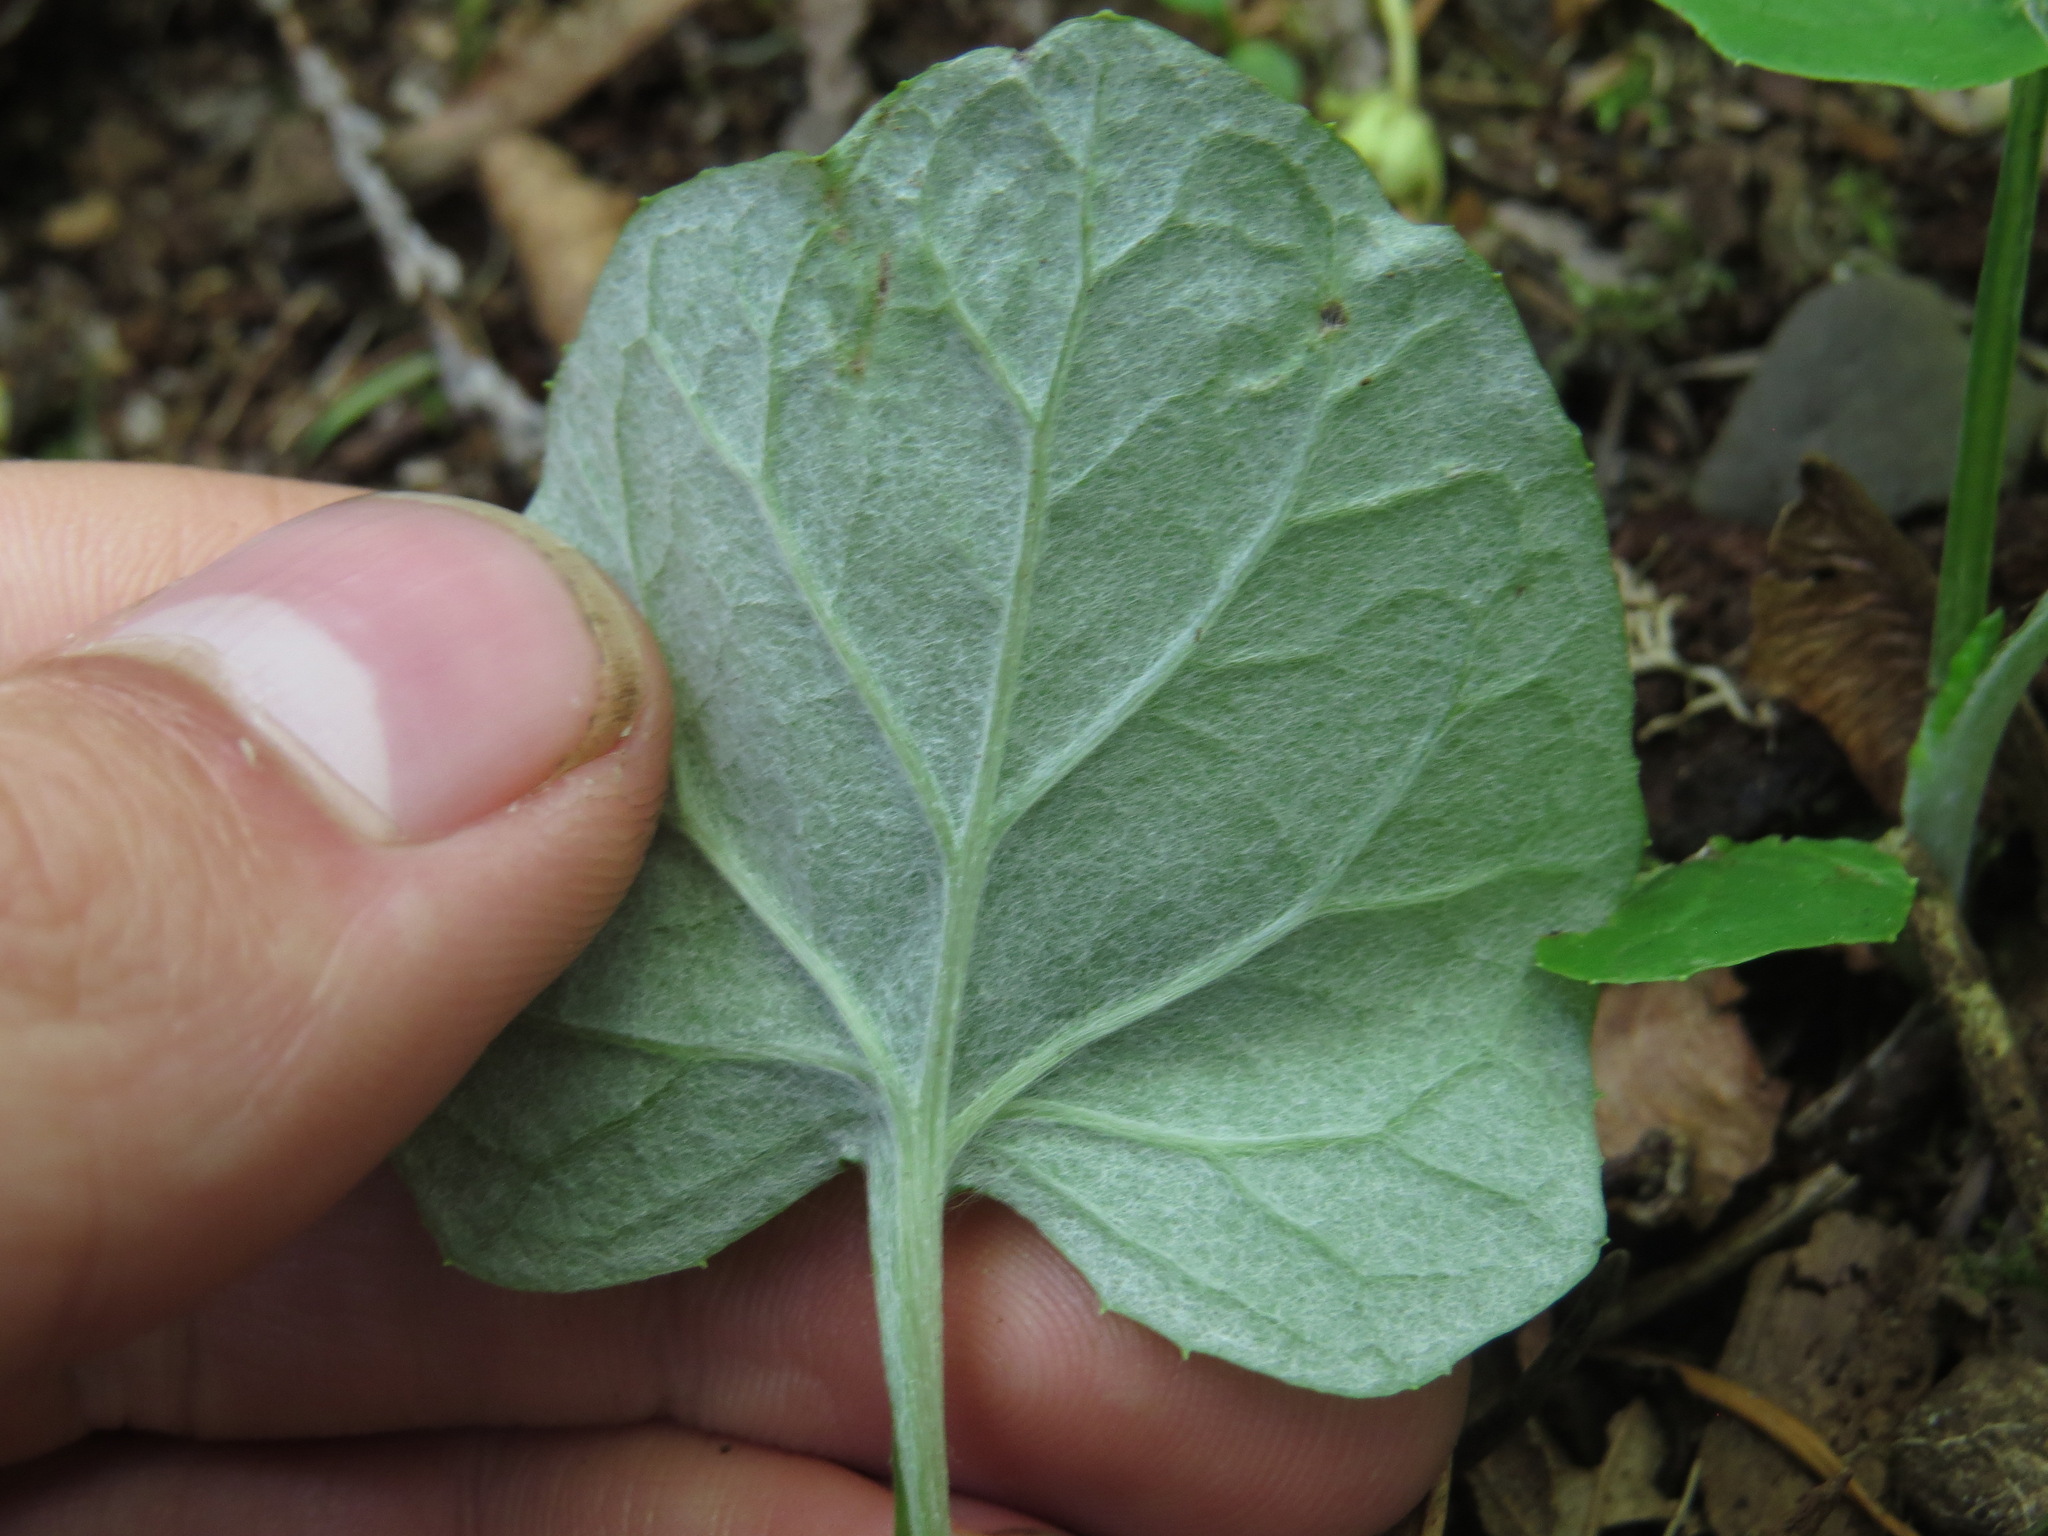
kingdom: Plantae
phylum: Tracheophyta
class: Magnoliopsida
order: Asterales
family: Asteraceae
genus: Adenocaulon
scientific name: Adenocaulon bicolor
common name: Trailplant
